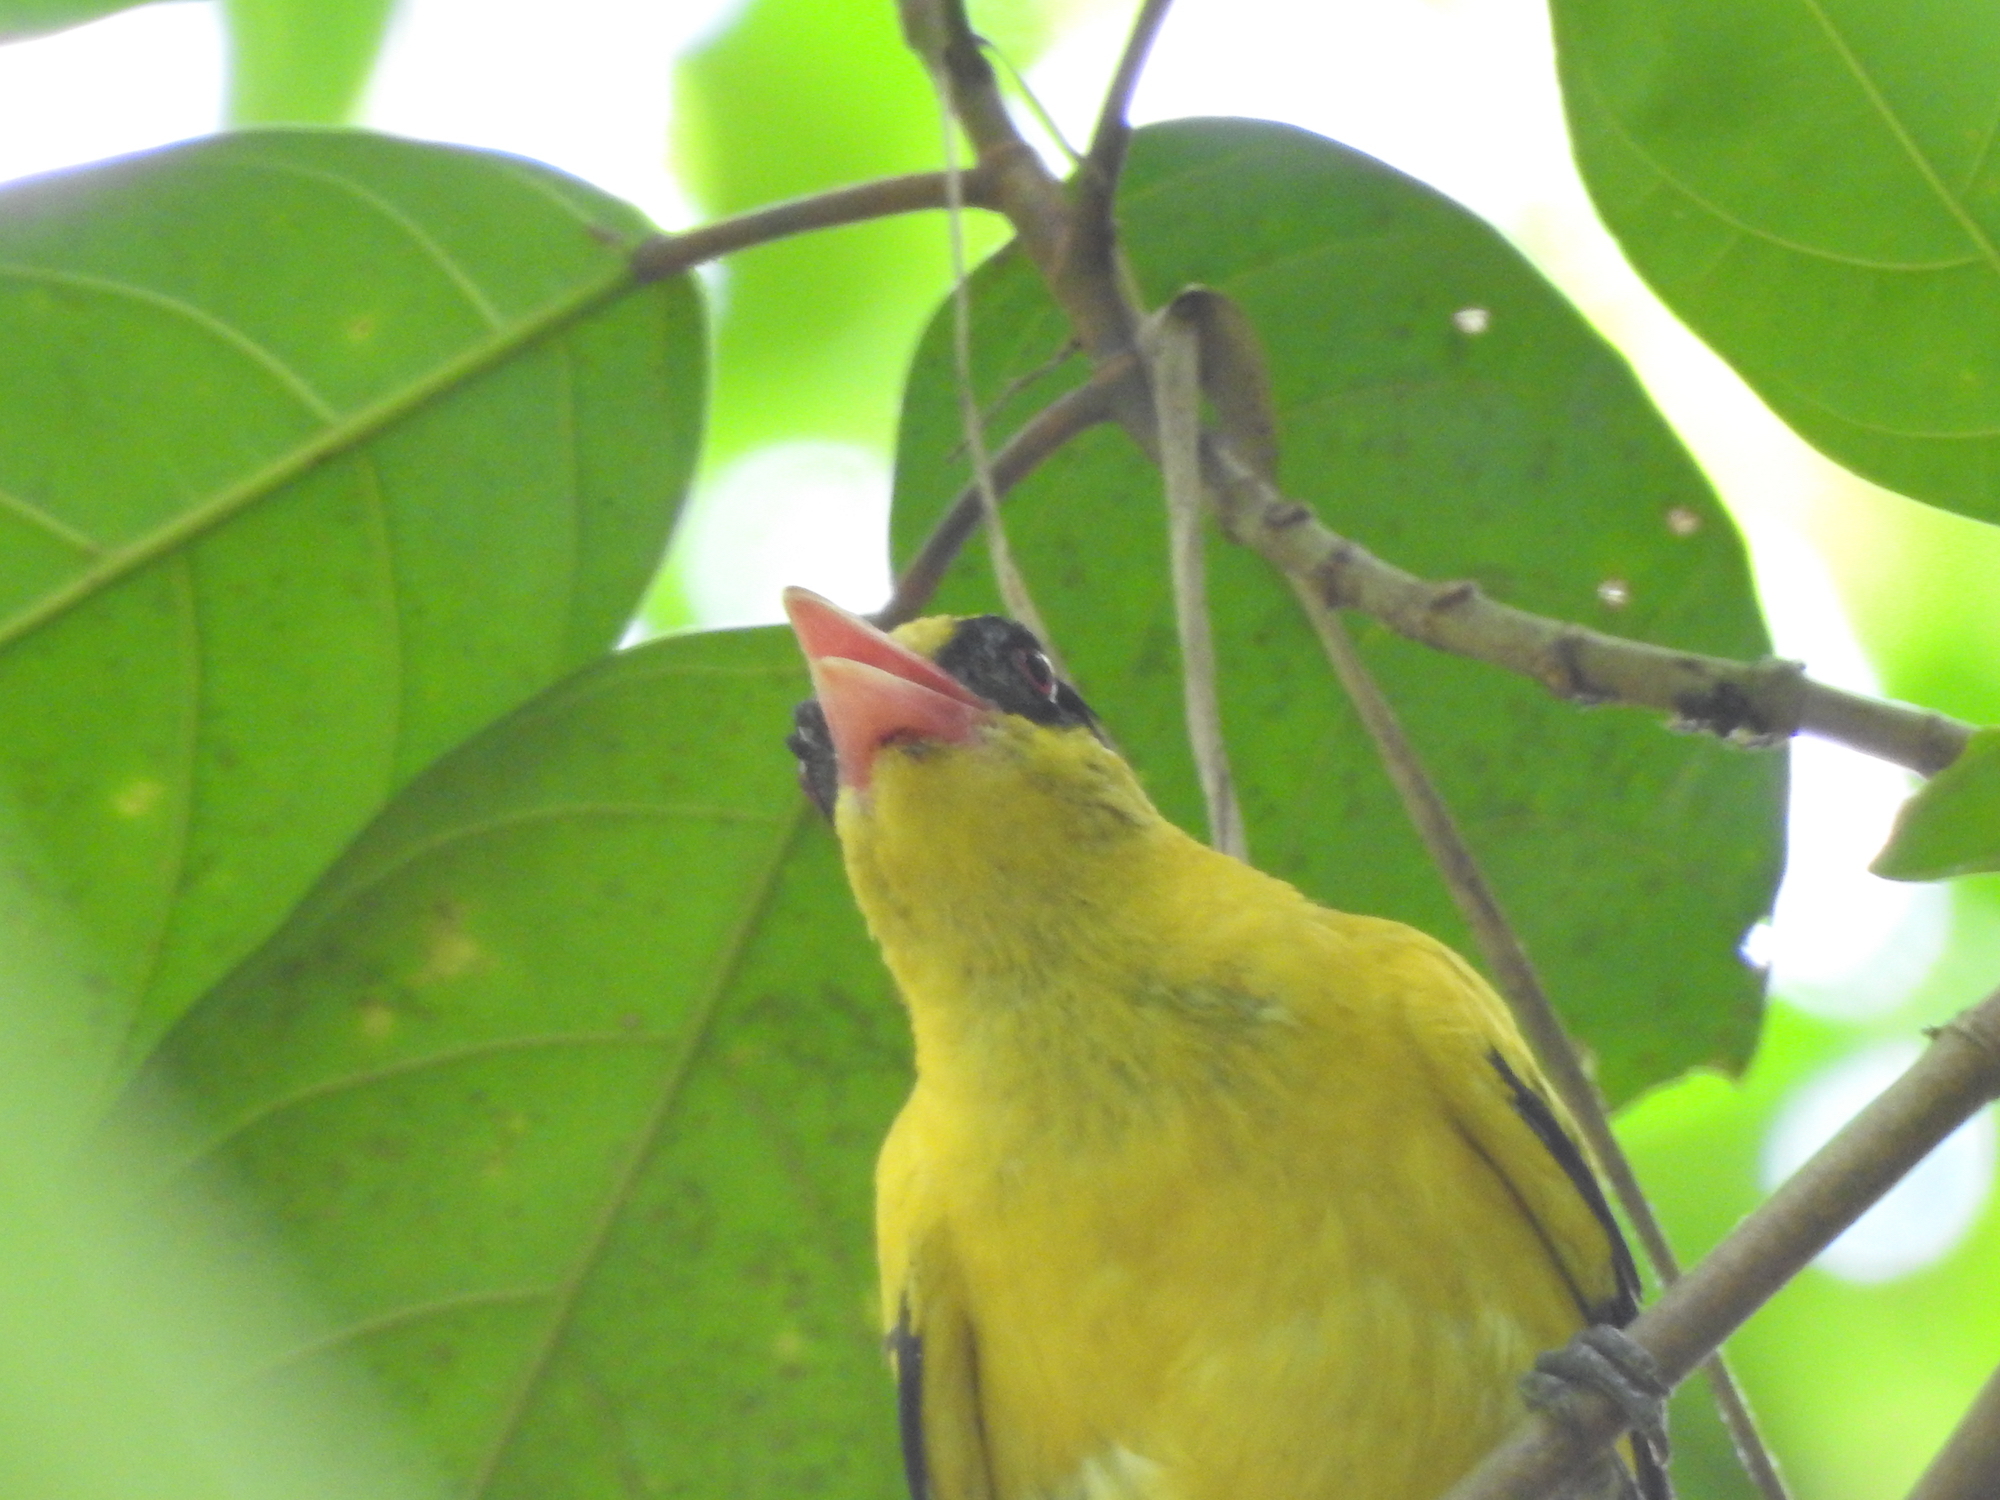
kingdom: Animalia
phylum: Chordata
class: Aves
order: Passeriformes
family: Oriolidae
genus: Oriolus
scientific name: Oriolus chinensis
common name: Black-naped oriole
